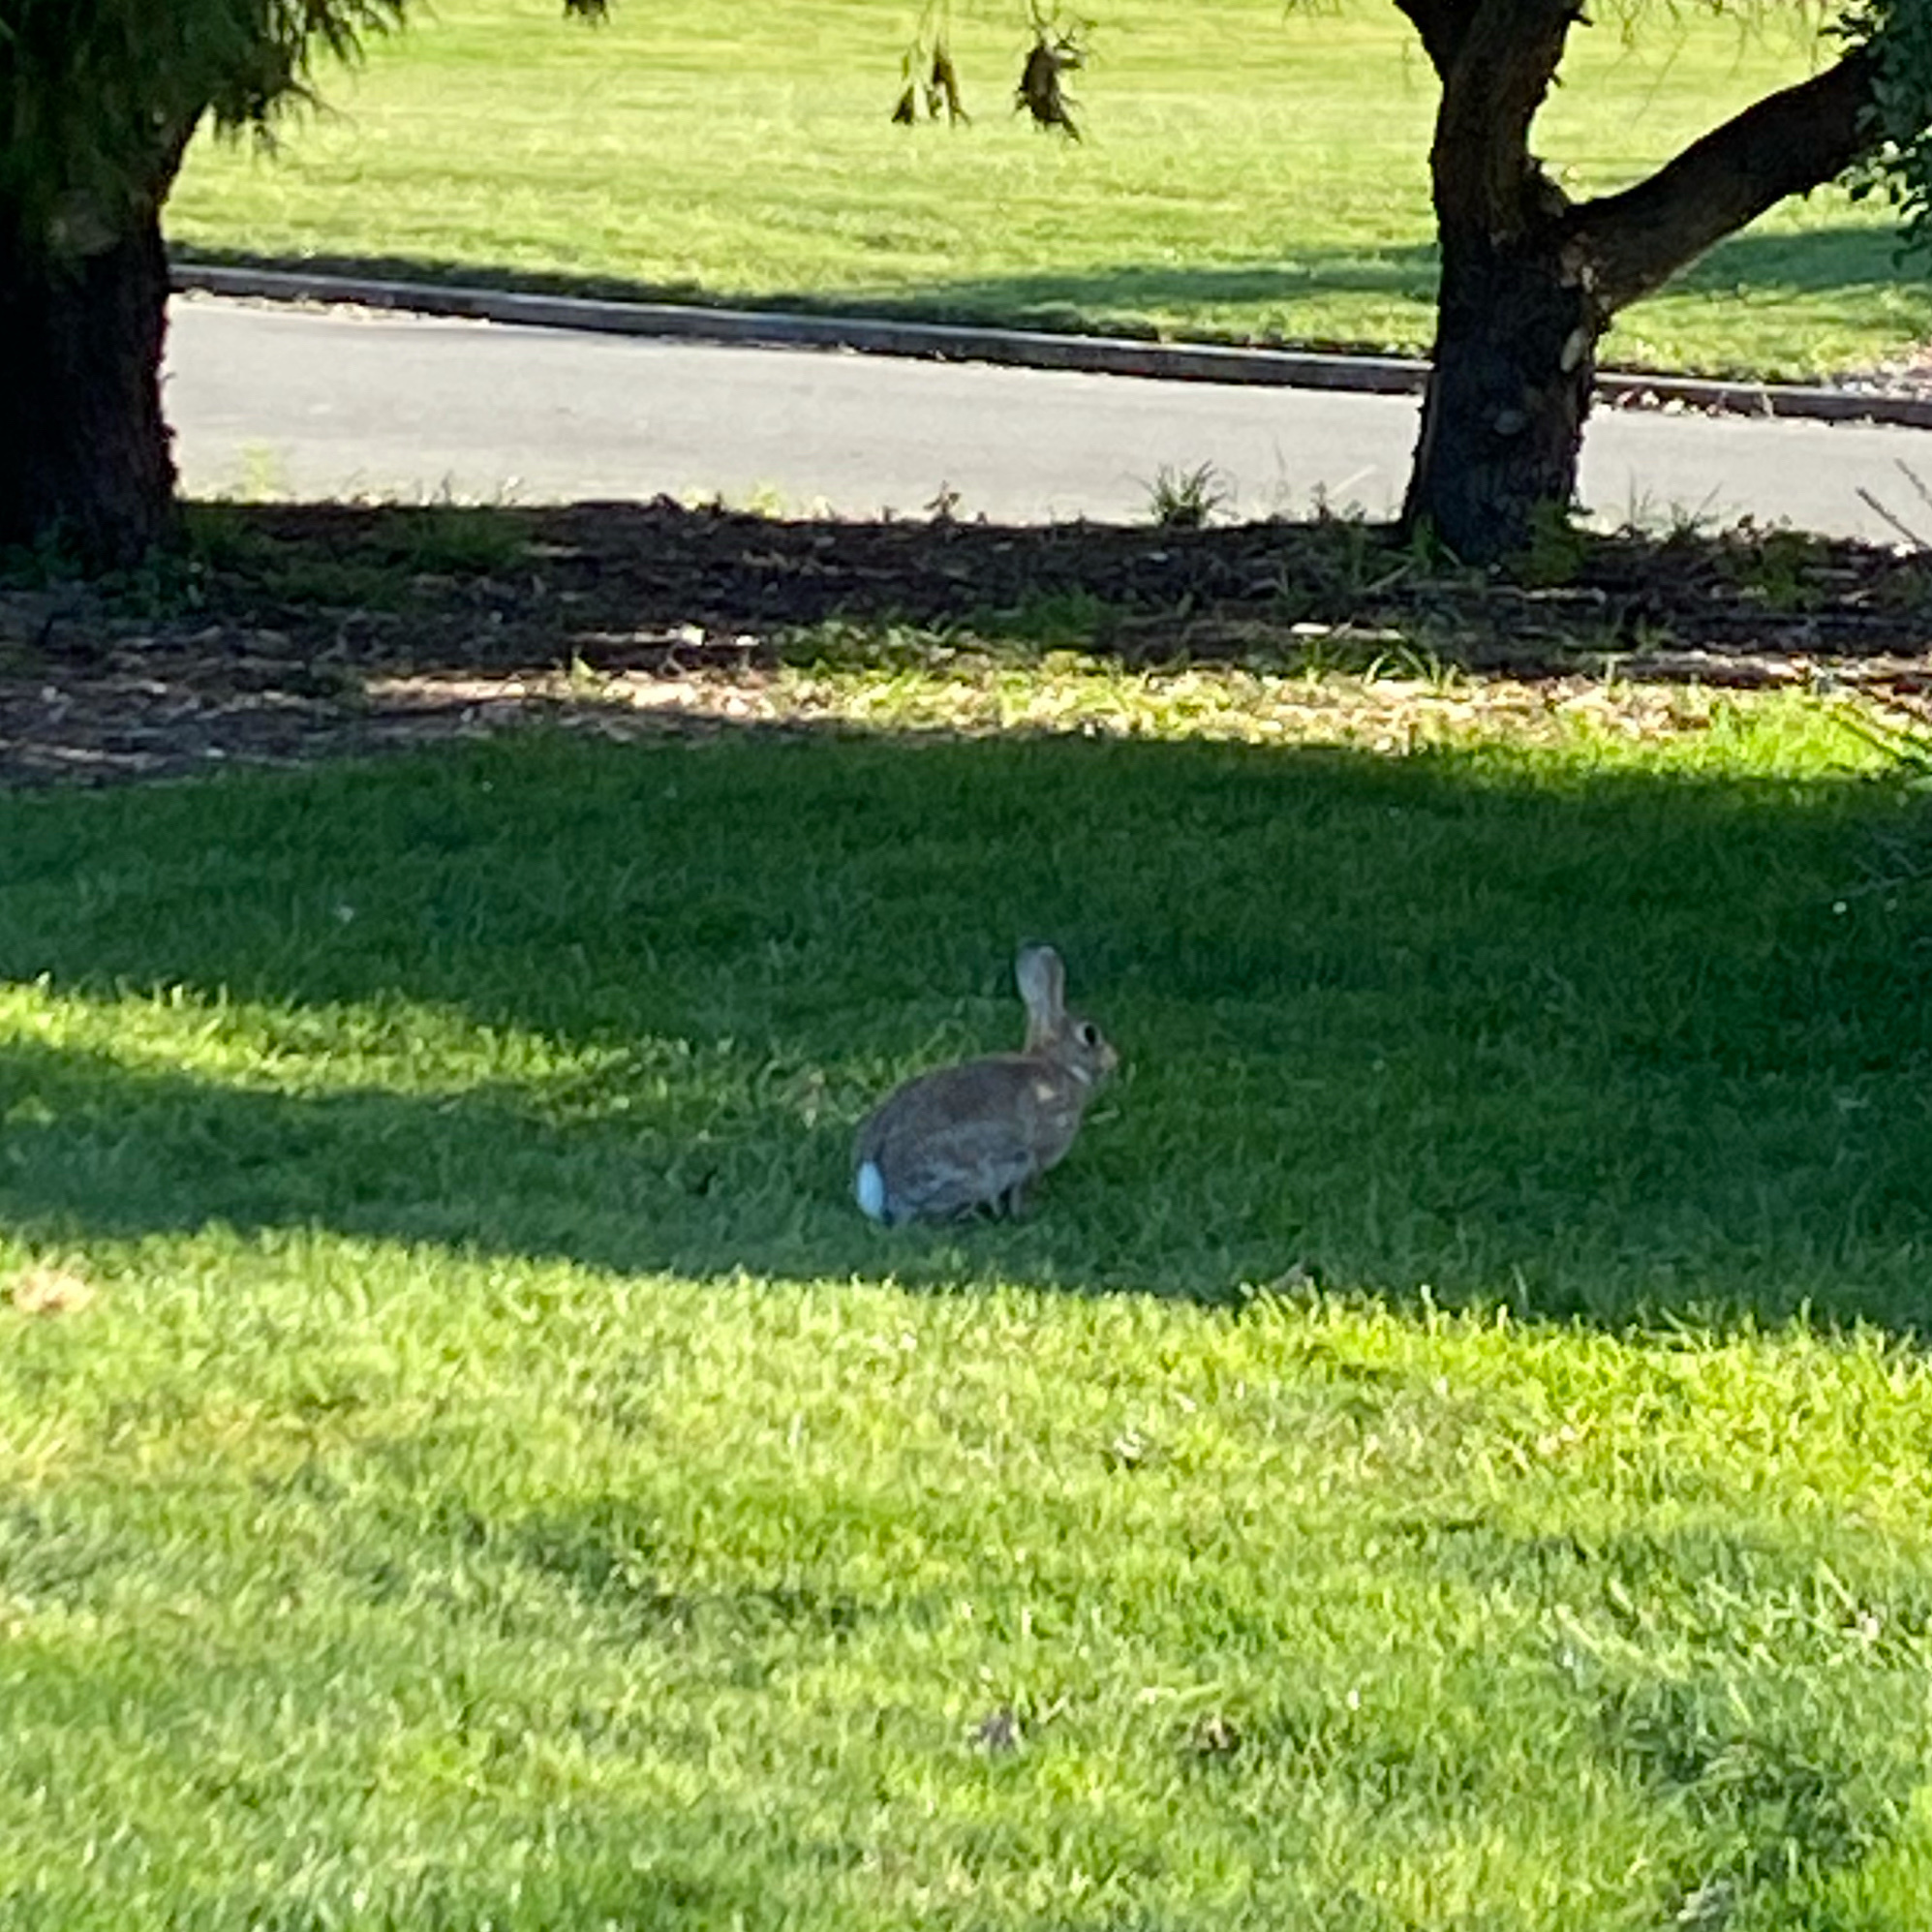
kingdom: Animalia
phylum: Chordata
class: Mammalia
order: Lagomorpha
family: Leporidae
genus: Oryctolagus
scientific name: Oryctolagus cuniculus
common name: European rabbit
